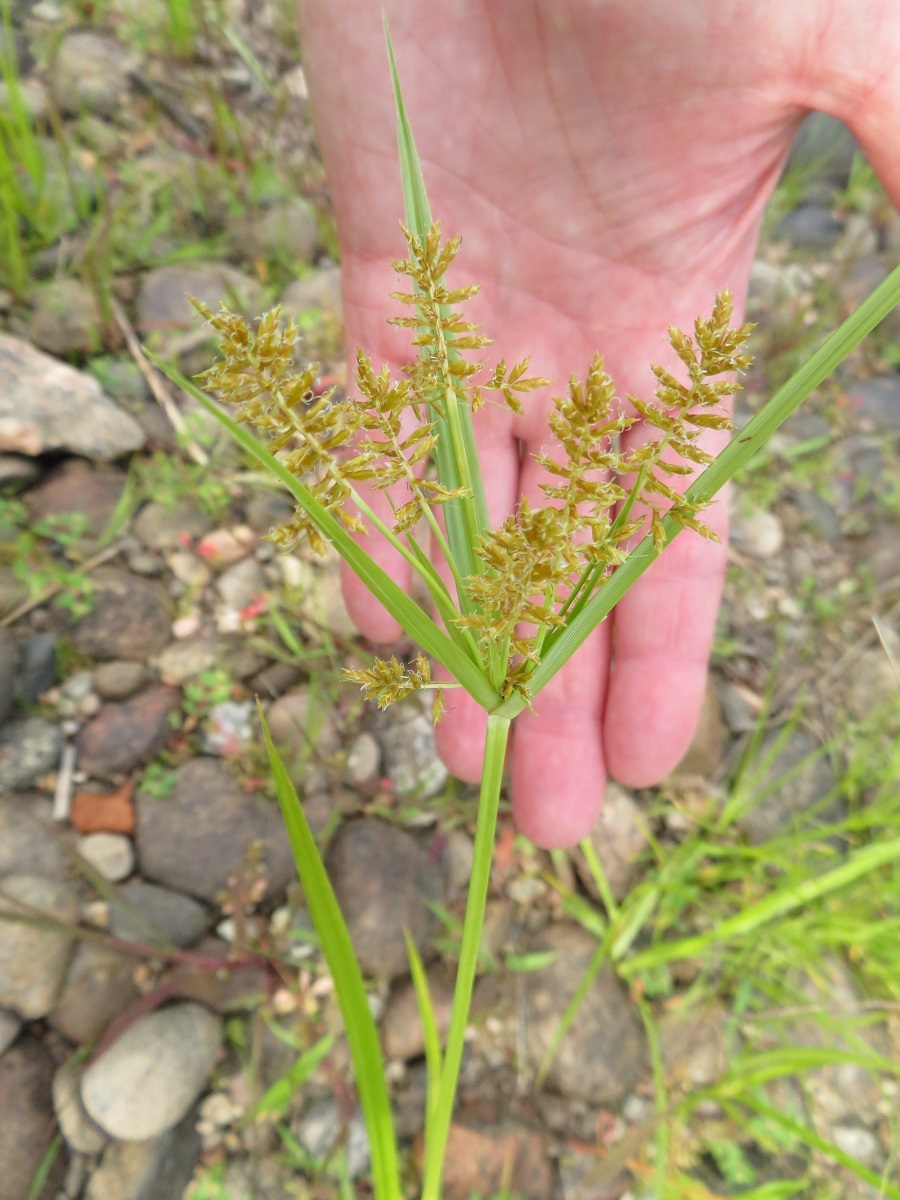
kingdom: Plantae
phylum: Tracheophyta
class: Liliopsida
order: Poales
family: Cyperaceae
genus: Cyperus
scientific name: Cyperus esculentus
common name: Yellow nutsedge
